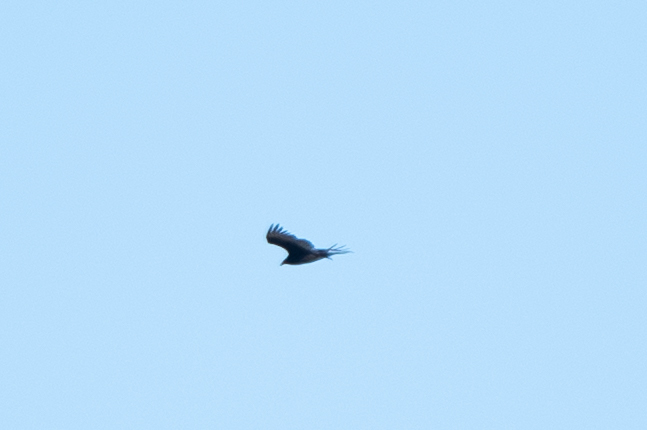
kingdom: Animalia
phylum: Chordata
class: Aves
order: Accipitriformes
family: Cathartidae
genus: Cathartes
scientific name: Cathartes aura
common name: Turkey vulture
